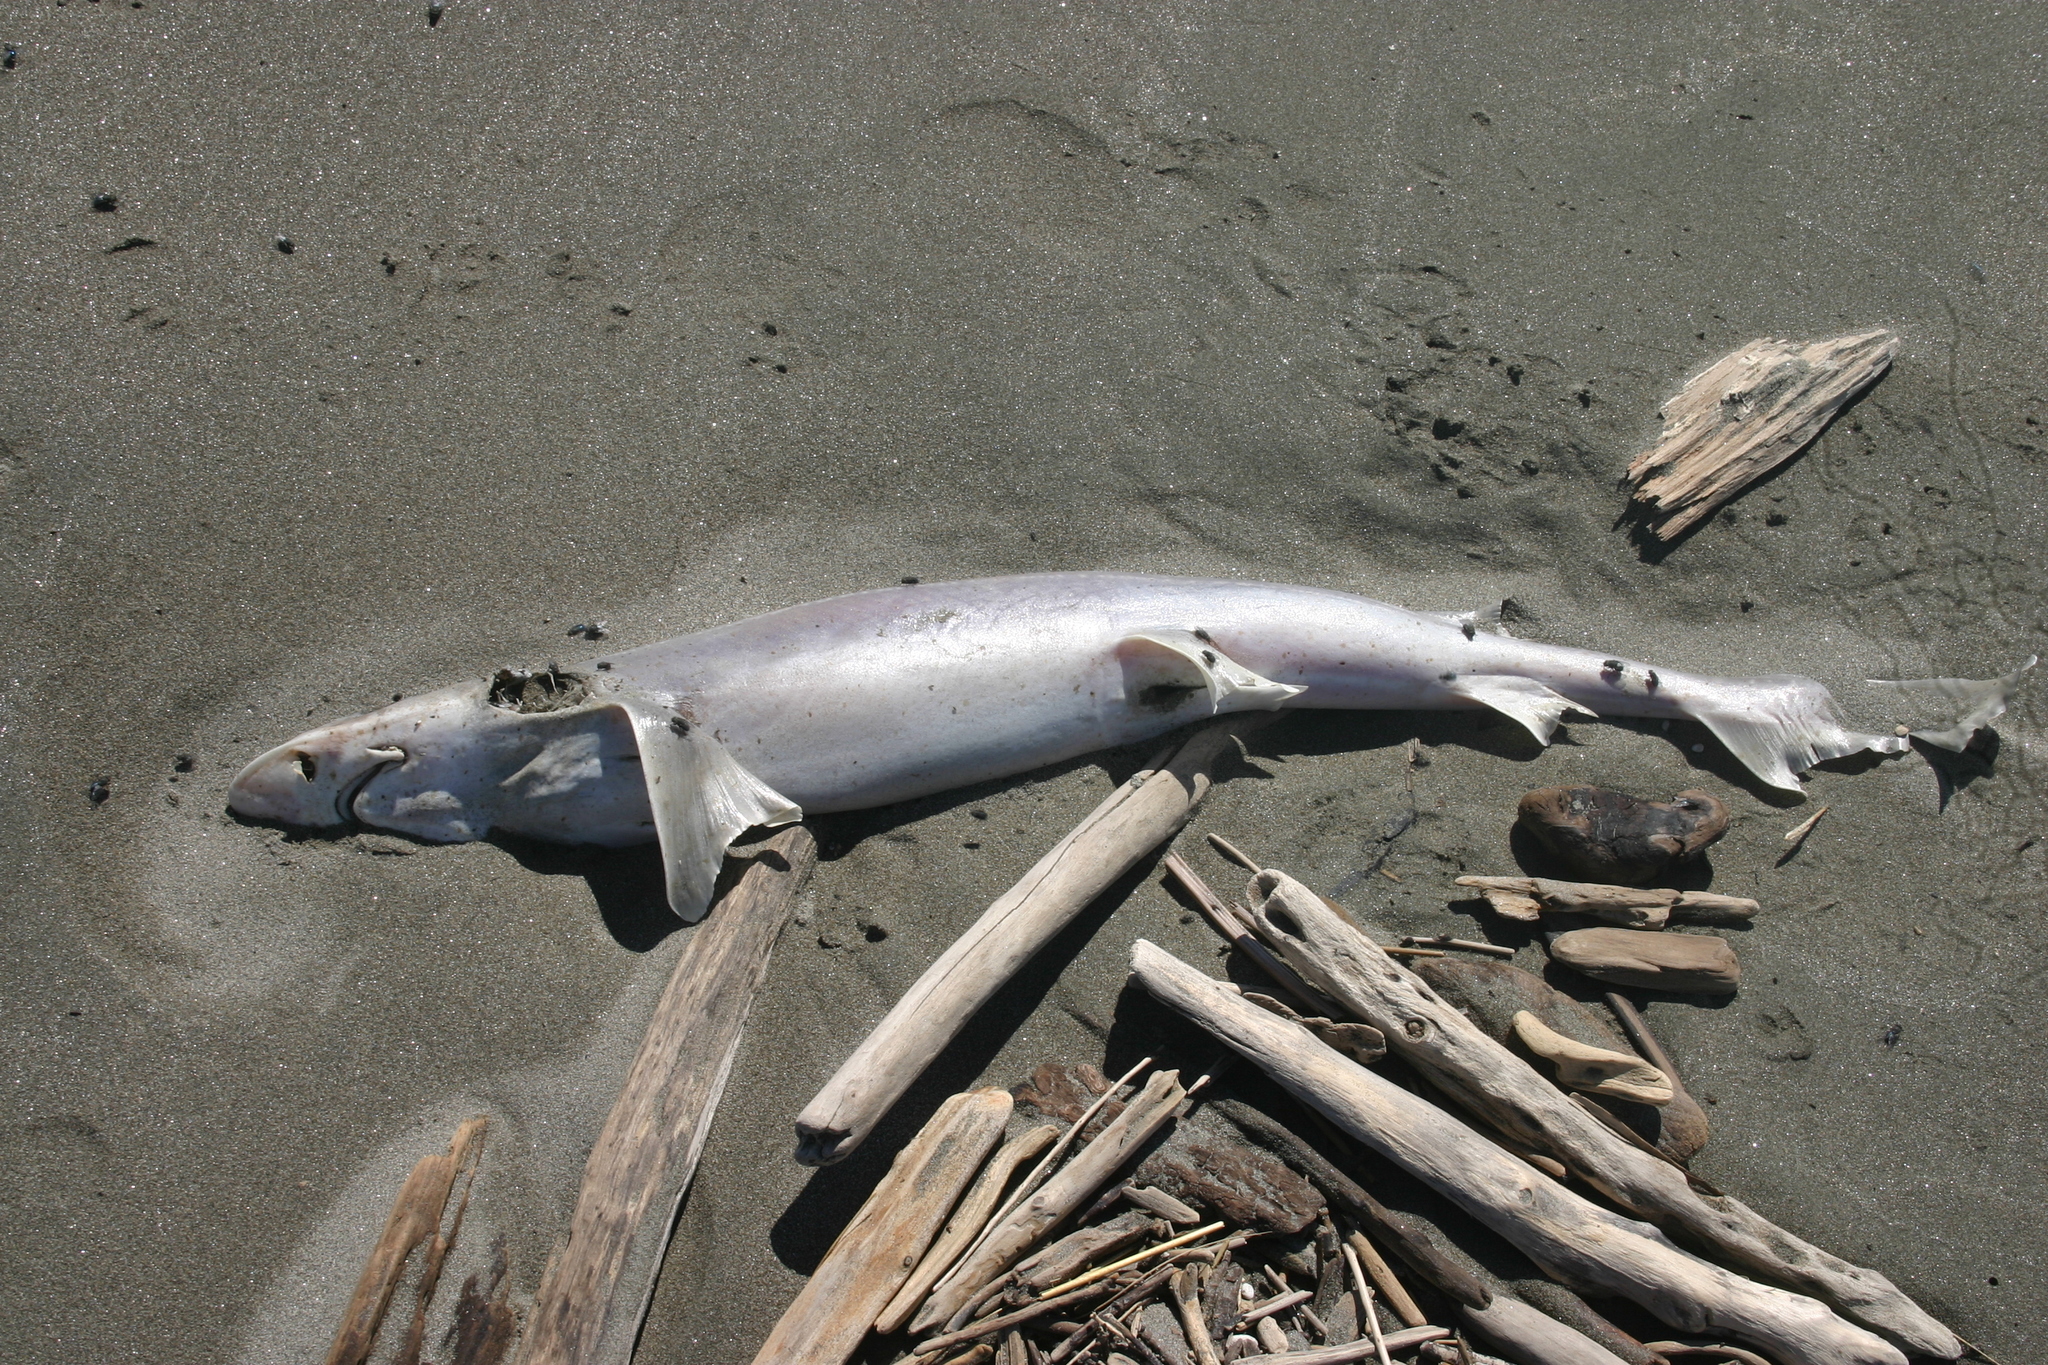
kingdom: Animalia
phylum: Chordata
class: Elasmobranchii
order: Carcharhiniformes
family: Triakidae
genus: Mustelus
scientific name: Mustelus lenticulatus
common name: Gummy shark
